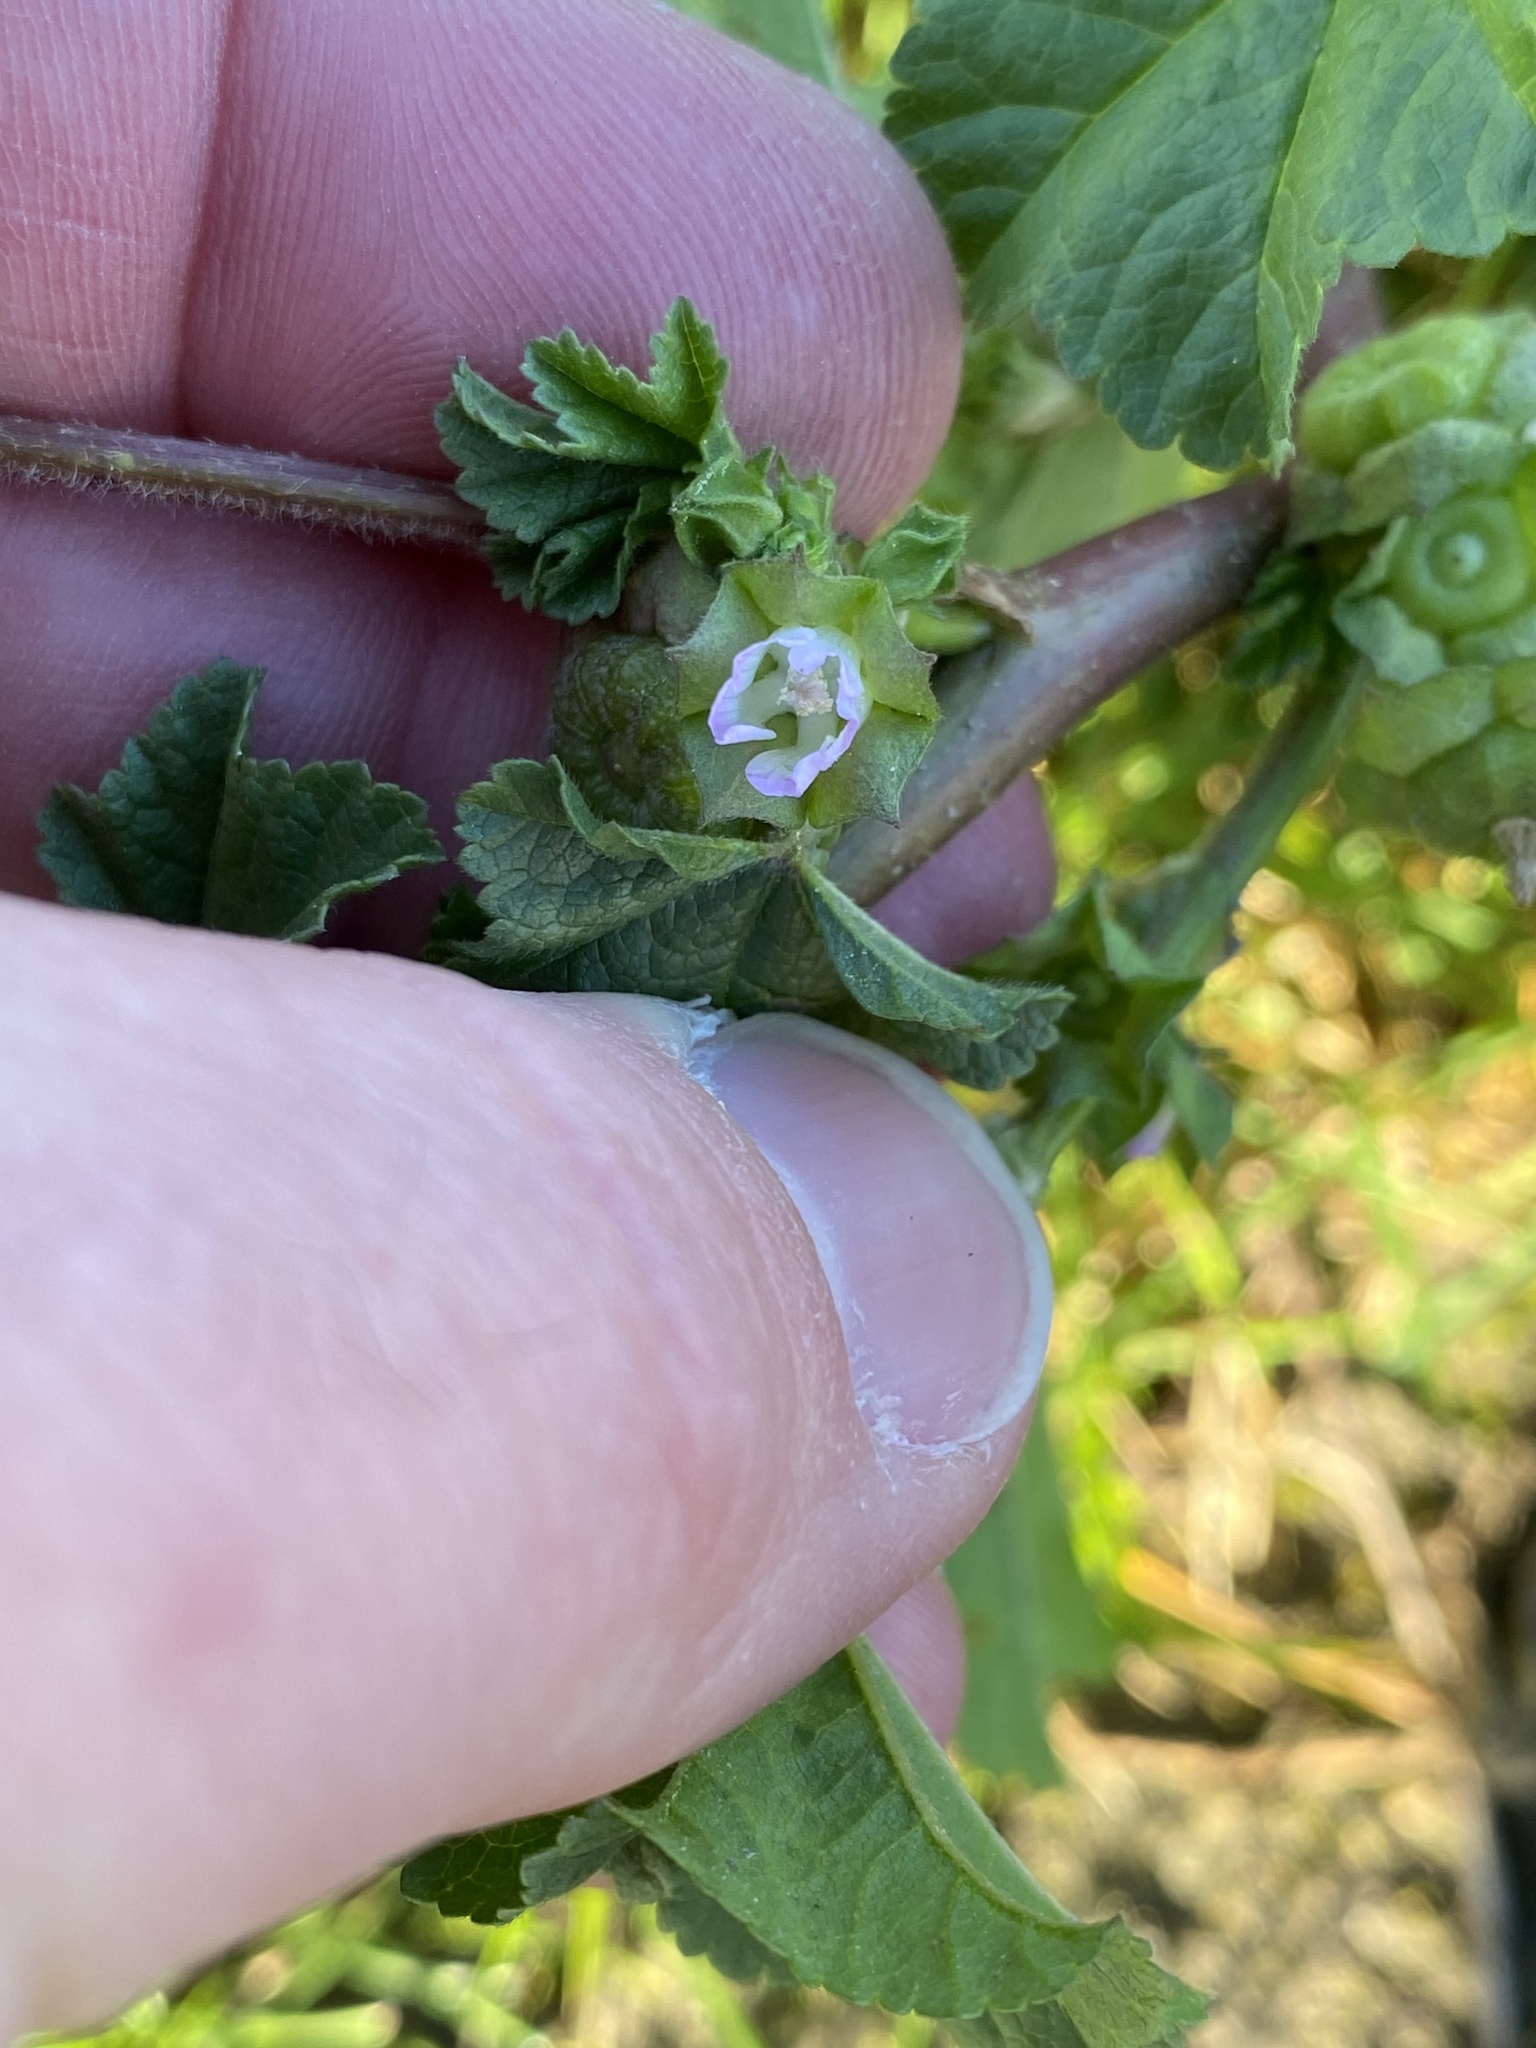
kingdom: Plantae
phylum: Tracheophyta
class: Magnoliopsida
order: Malvales
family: Malvaceae
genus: Malva
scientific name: Malva parviflora
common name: Least mallow
